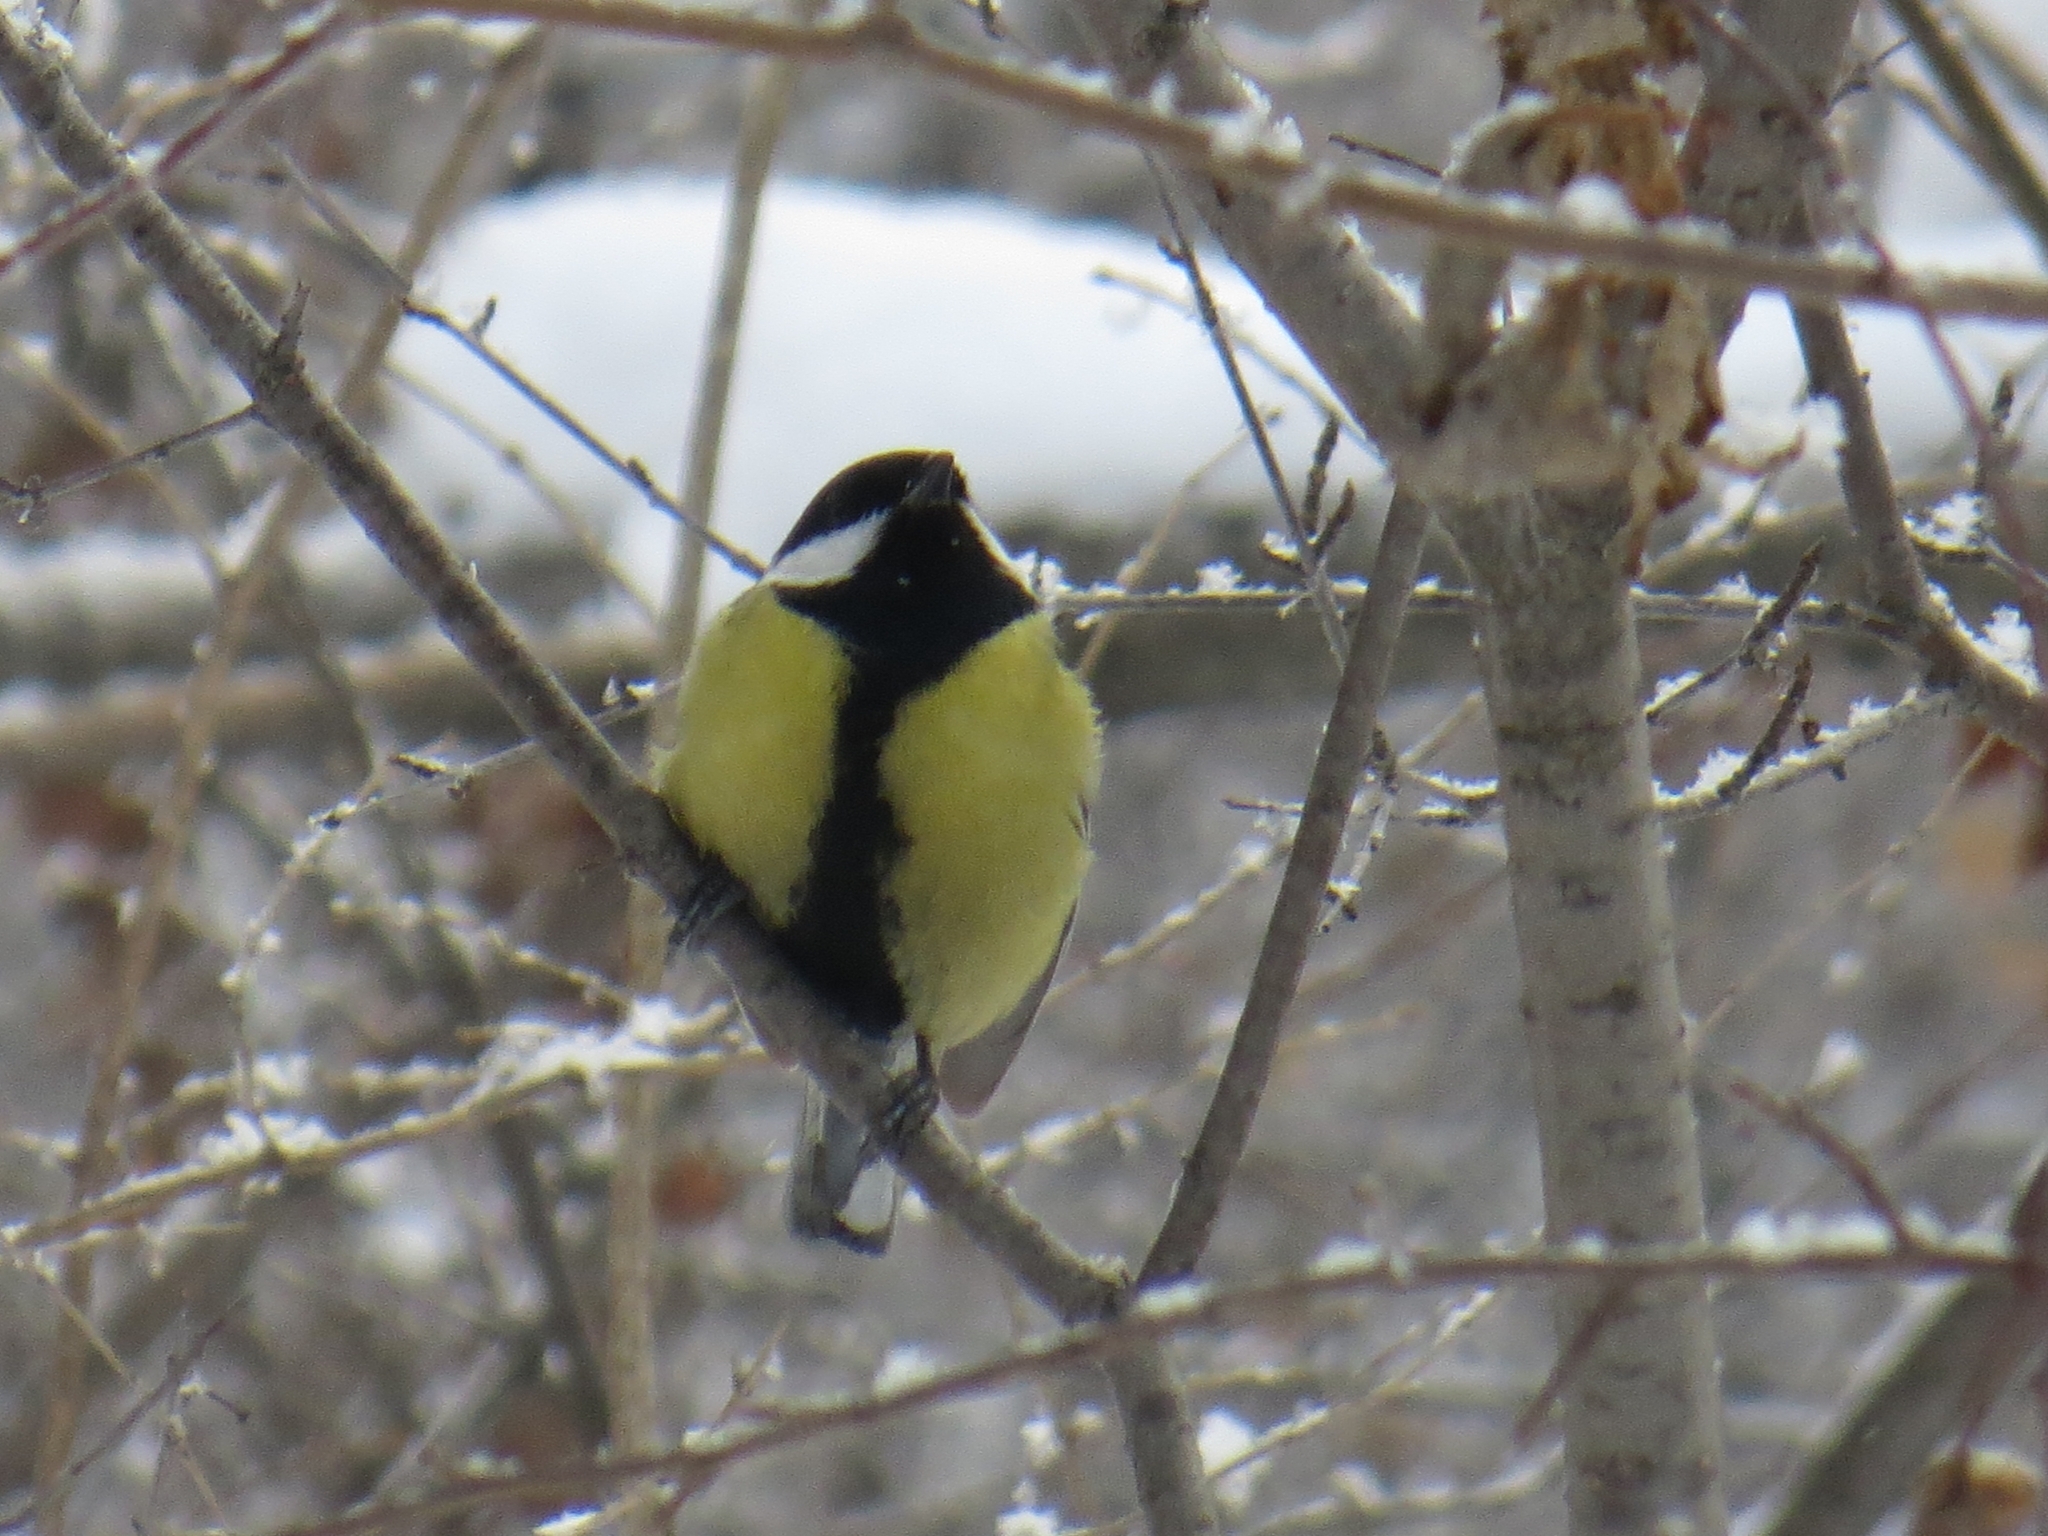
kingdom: Animalia
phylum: Chordata
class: Aves
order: Passeriformes
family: Paridae
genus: Parus
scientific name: Parus major
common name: Great tit
